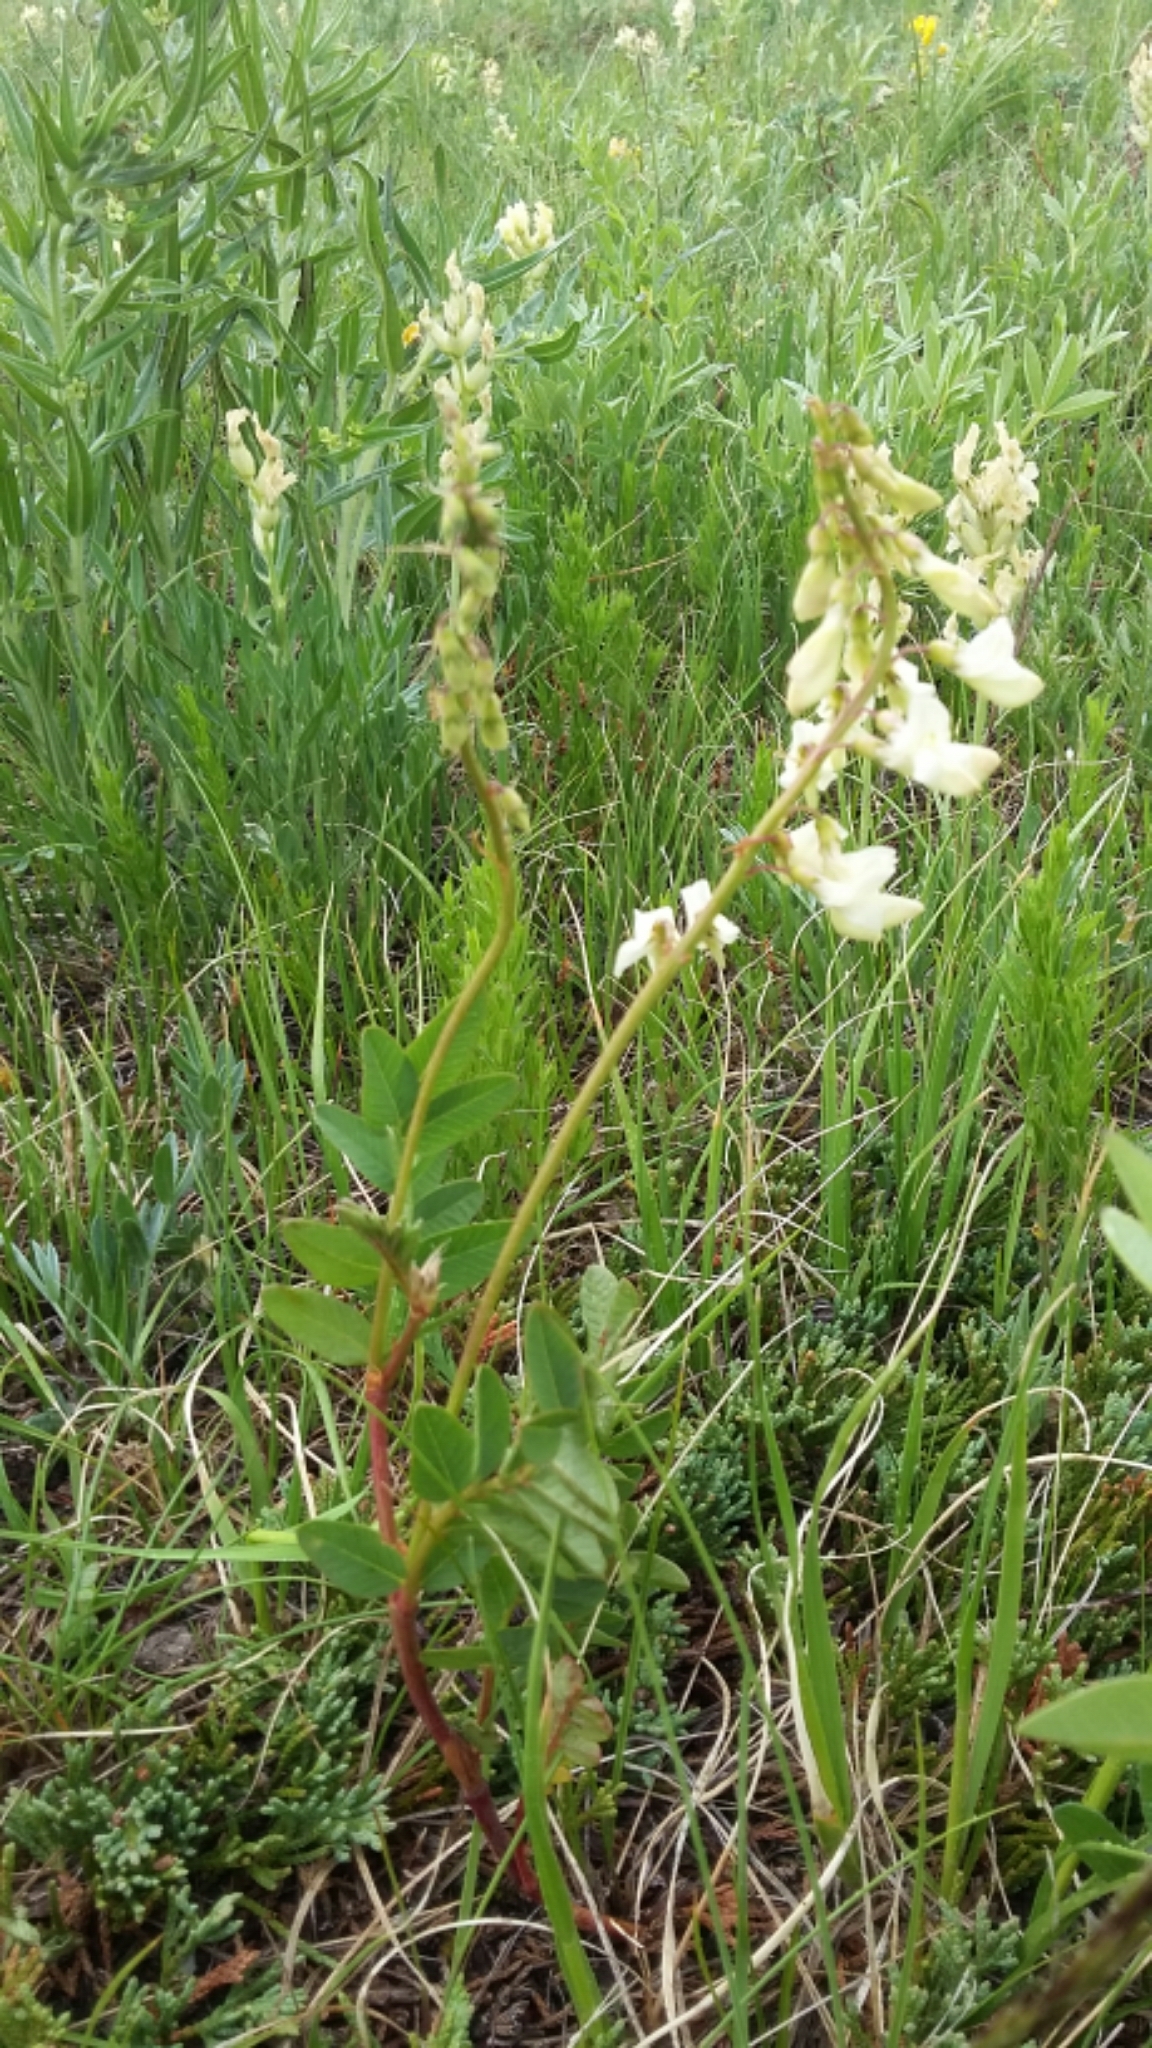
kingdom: Plantae
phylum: Tracheophyta
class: Magnoliopsida
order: Fabales
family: Fabaceae
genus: Hedysarum
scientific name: Hedysarum sulphurescens
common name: Sulphur hedysarum
